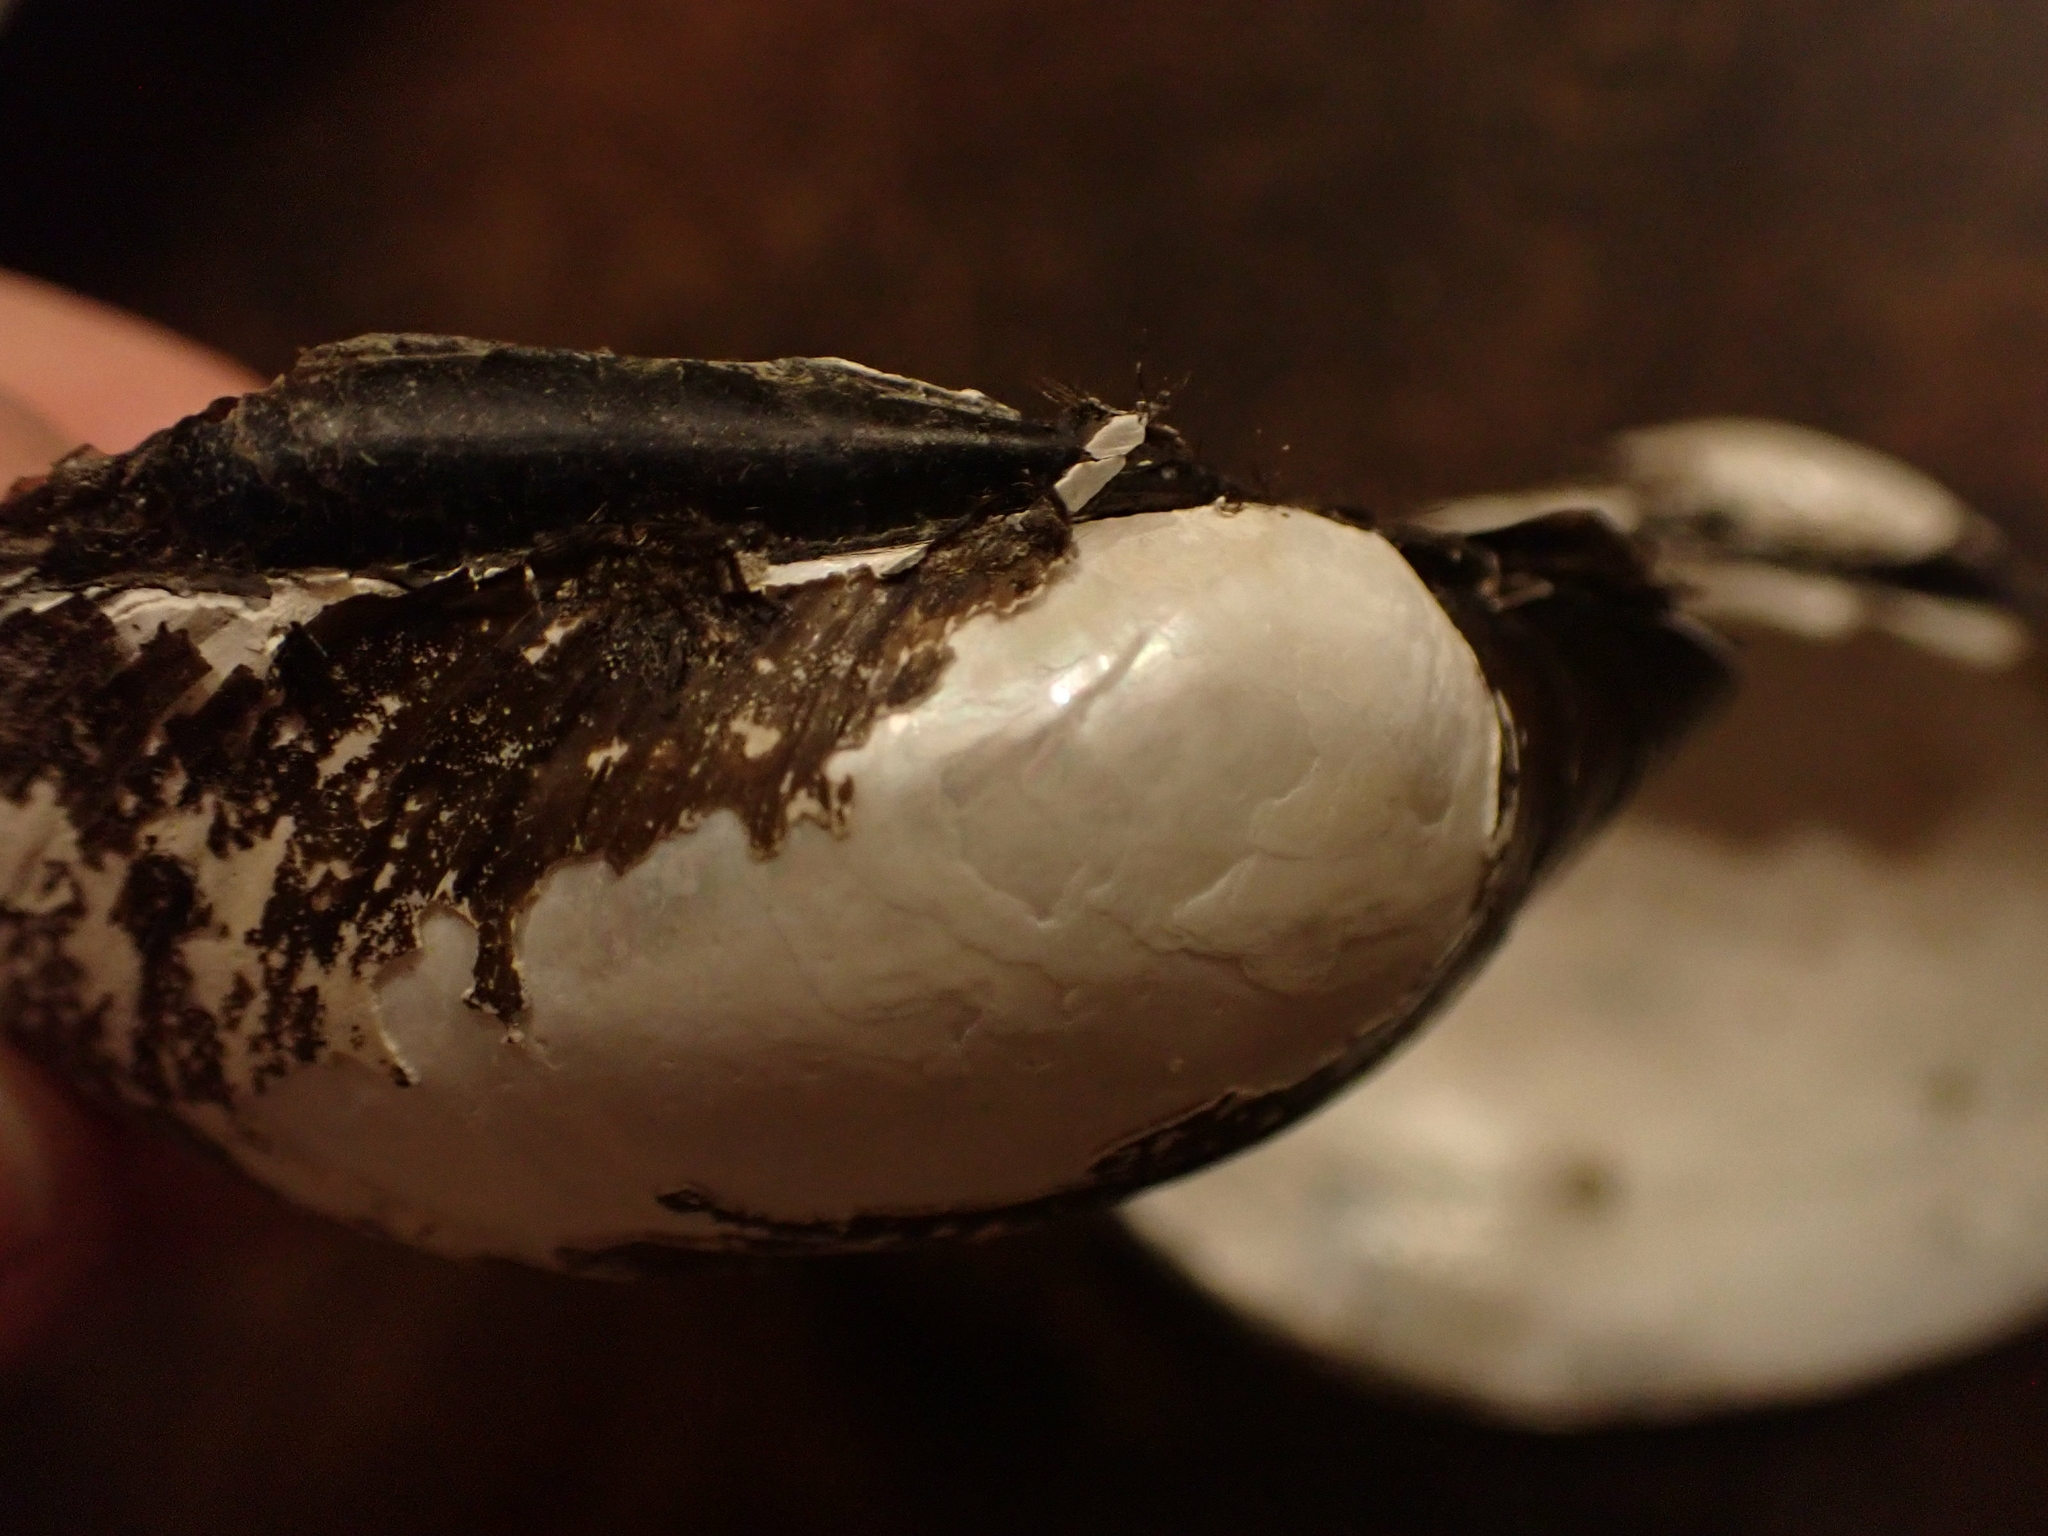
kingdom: Animalia
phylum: Mollusca
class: Bivalvia
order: Unionida
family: Unionidae
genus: Lampsilis
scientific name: Lampsilis cardium
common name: Plain pocketbook
